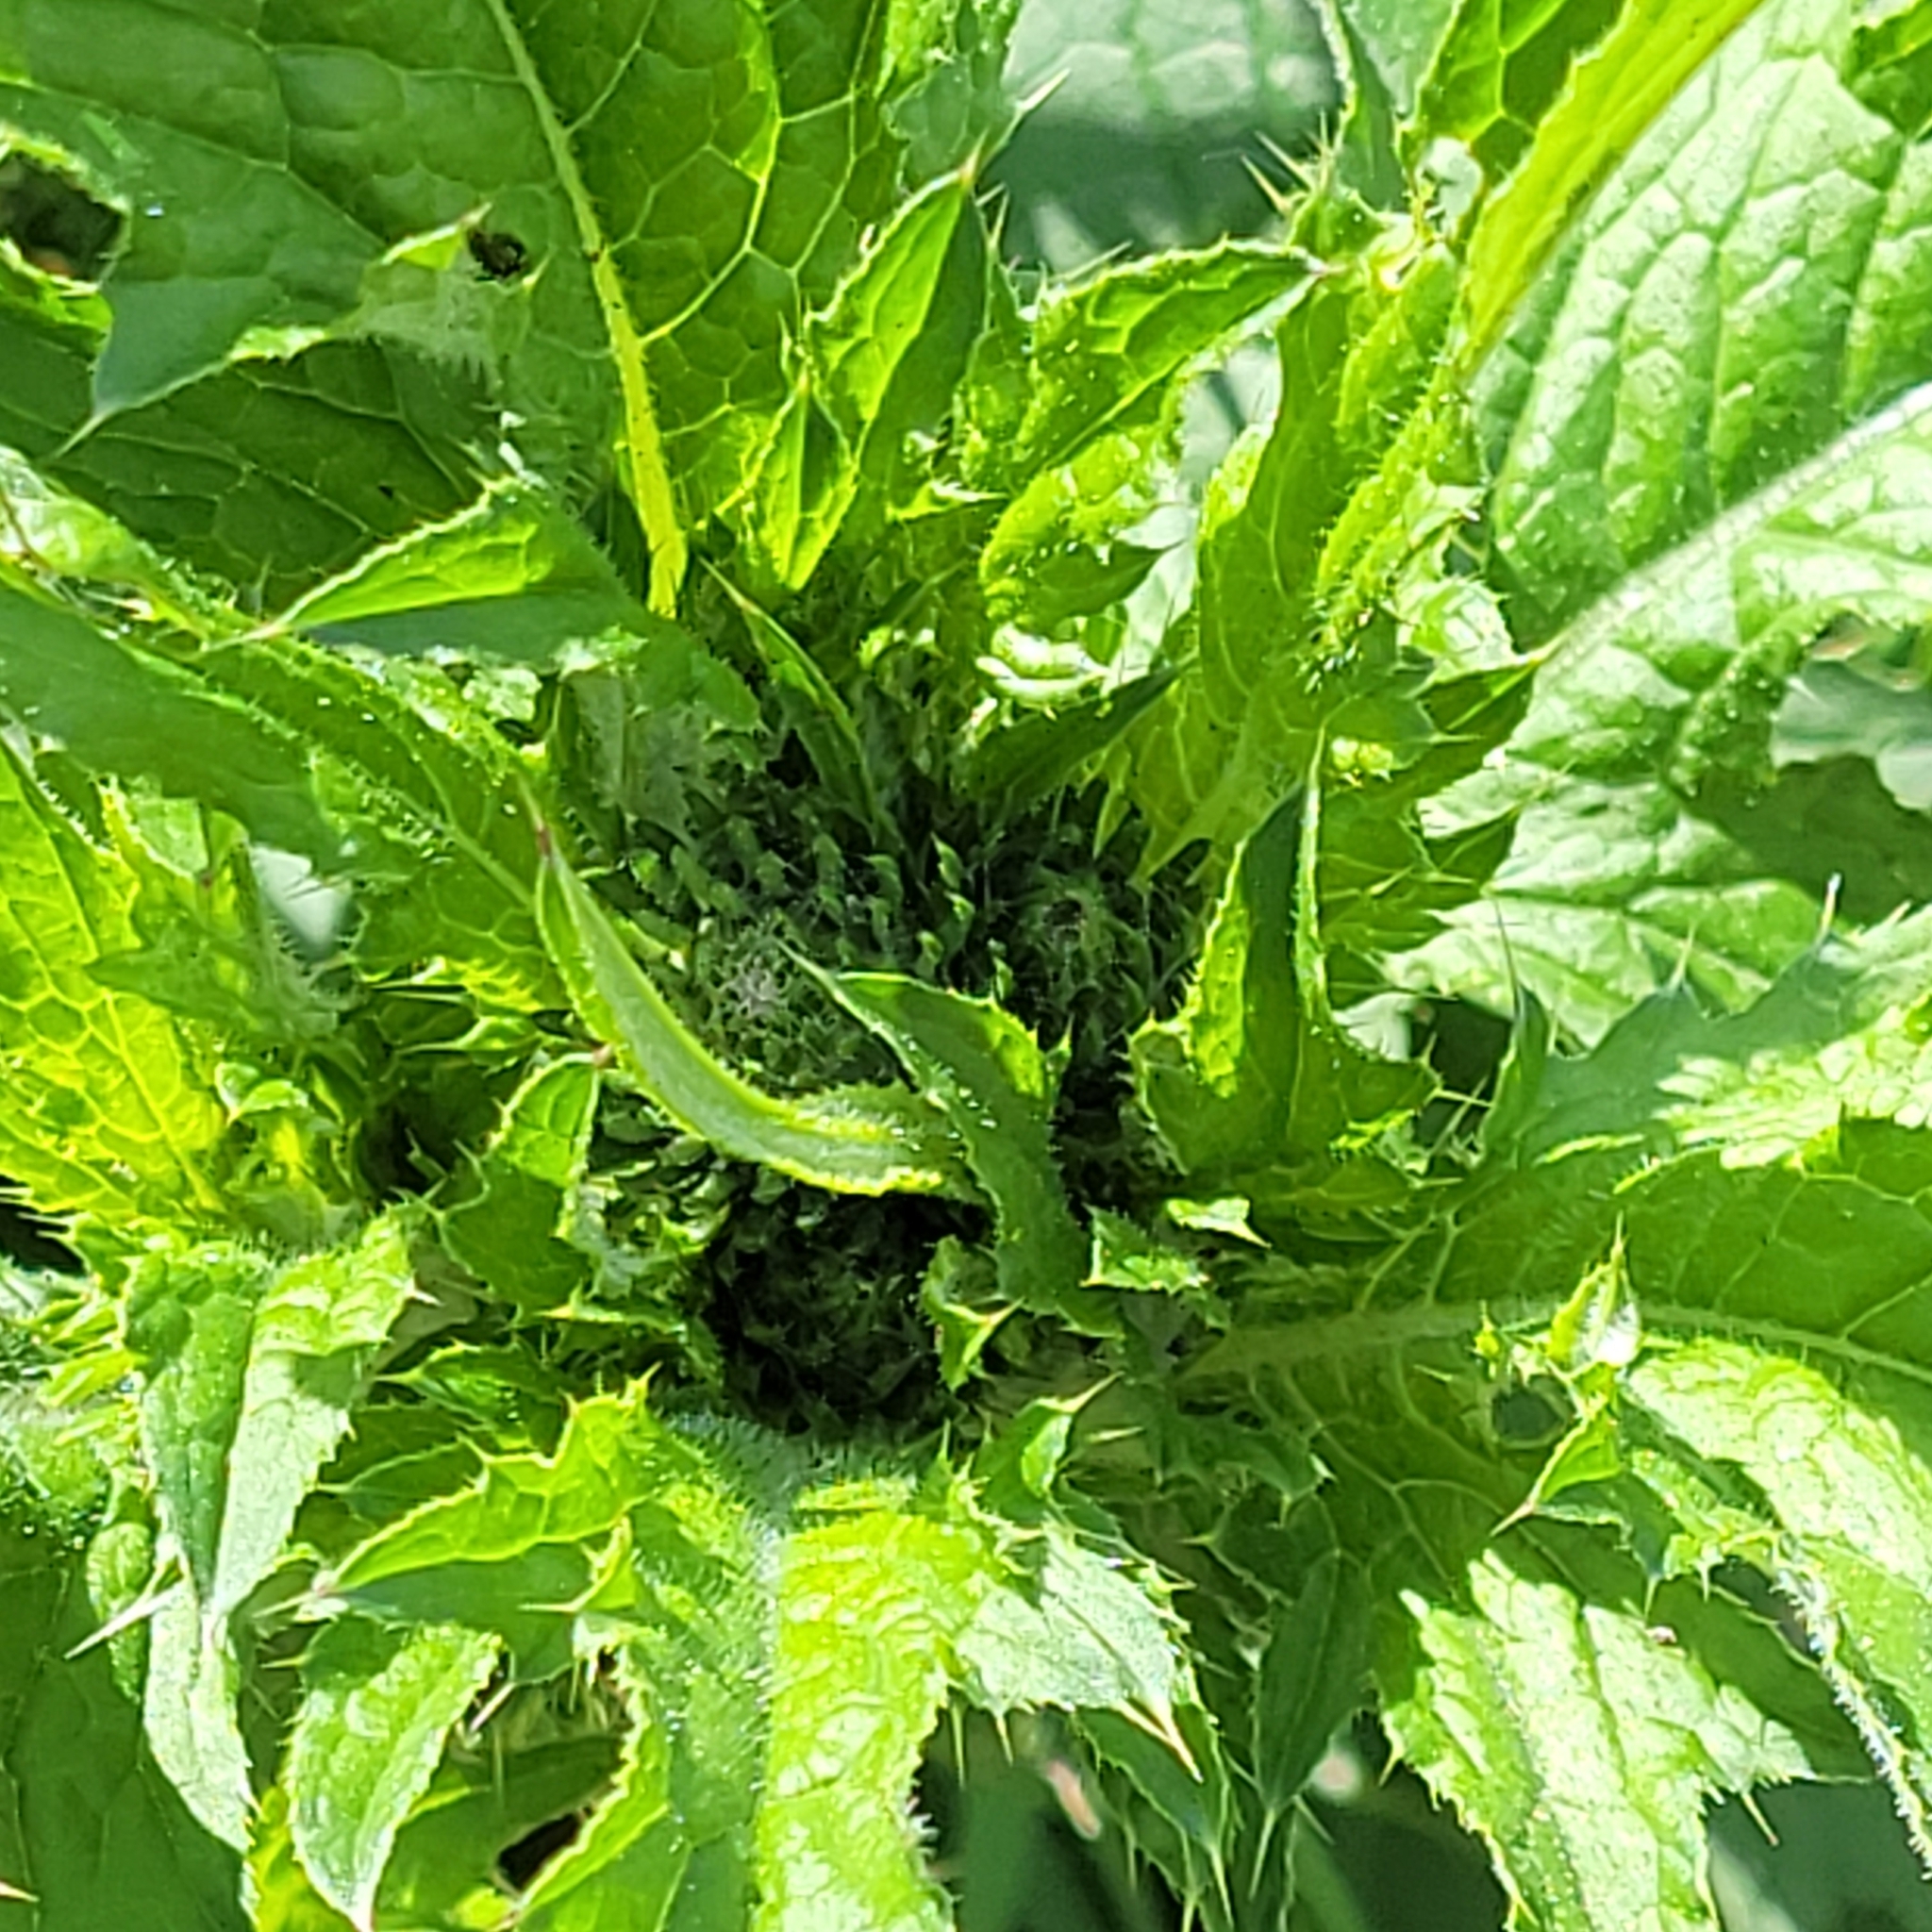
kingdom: Plantae
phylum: Tracheophyta
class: Magnoliopsida
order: Asterales
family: Asteraceae
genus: Carduus
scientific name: Carduus crispus
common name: Welted thistle
